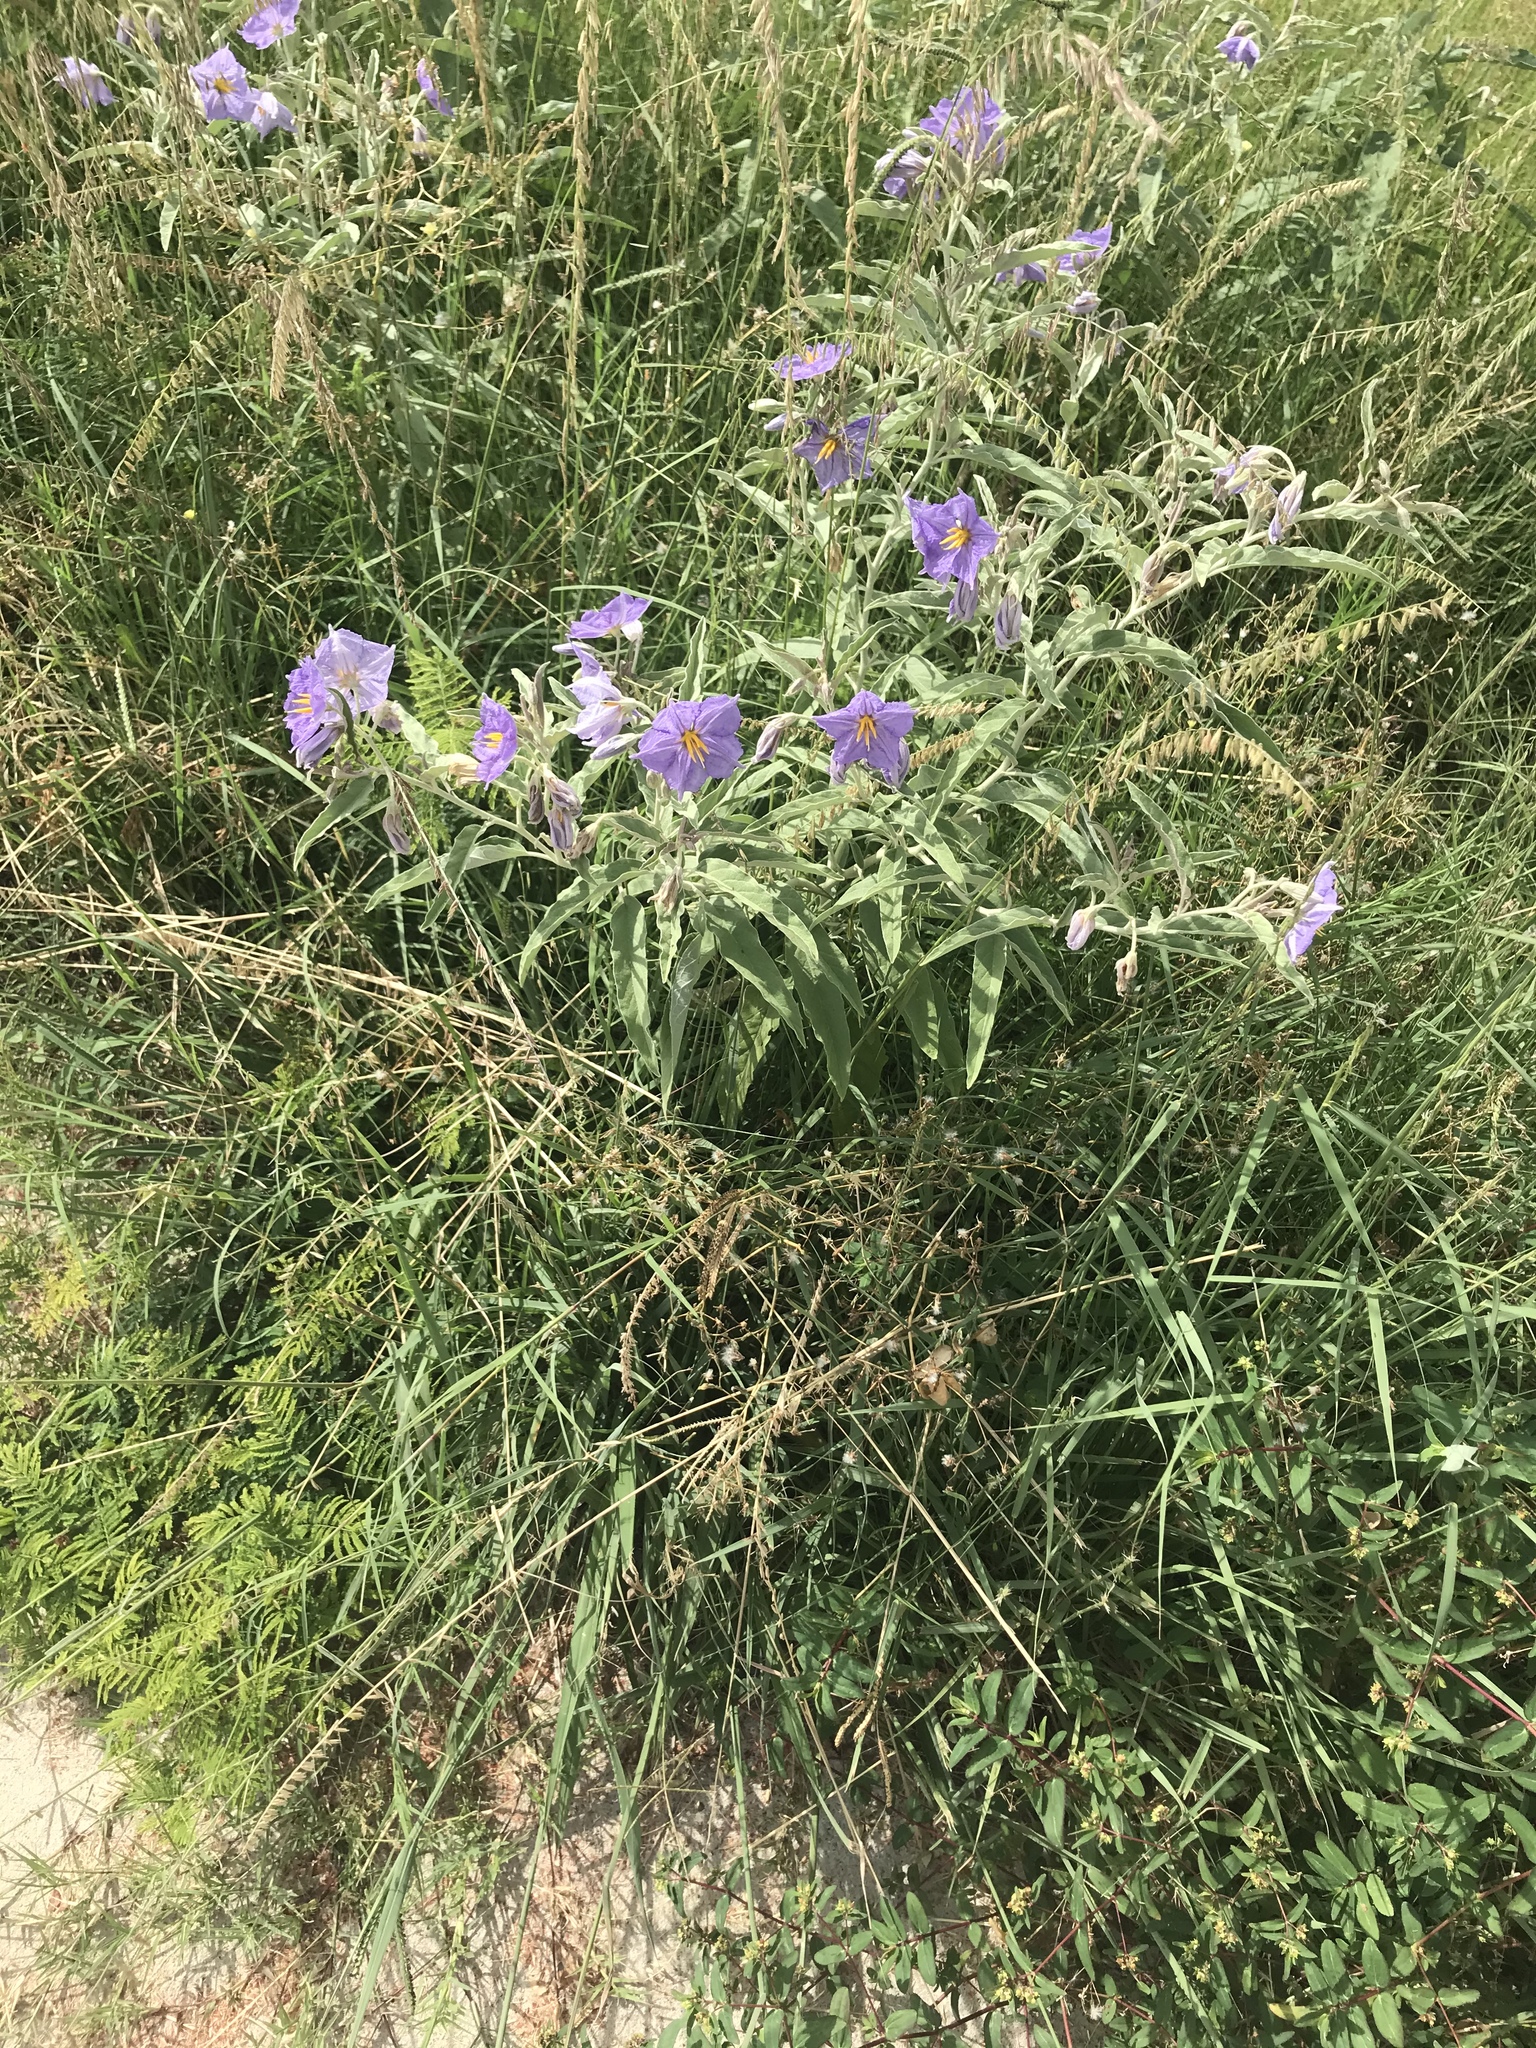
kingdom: Plantae
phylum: Tracheophyta
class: Magnoliopsida
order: Solanales
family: Solanaceae
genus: Solanum
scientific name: Solanum elaeagnifolium
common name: Silverleaf nightshade
